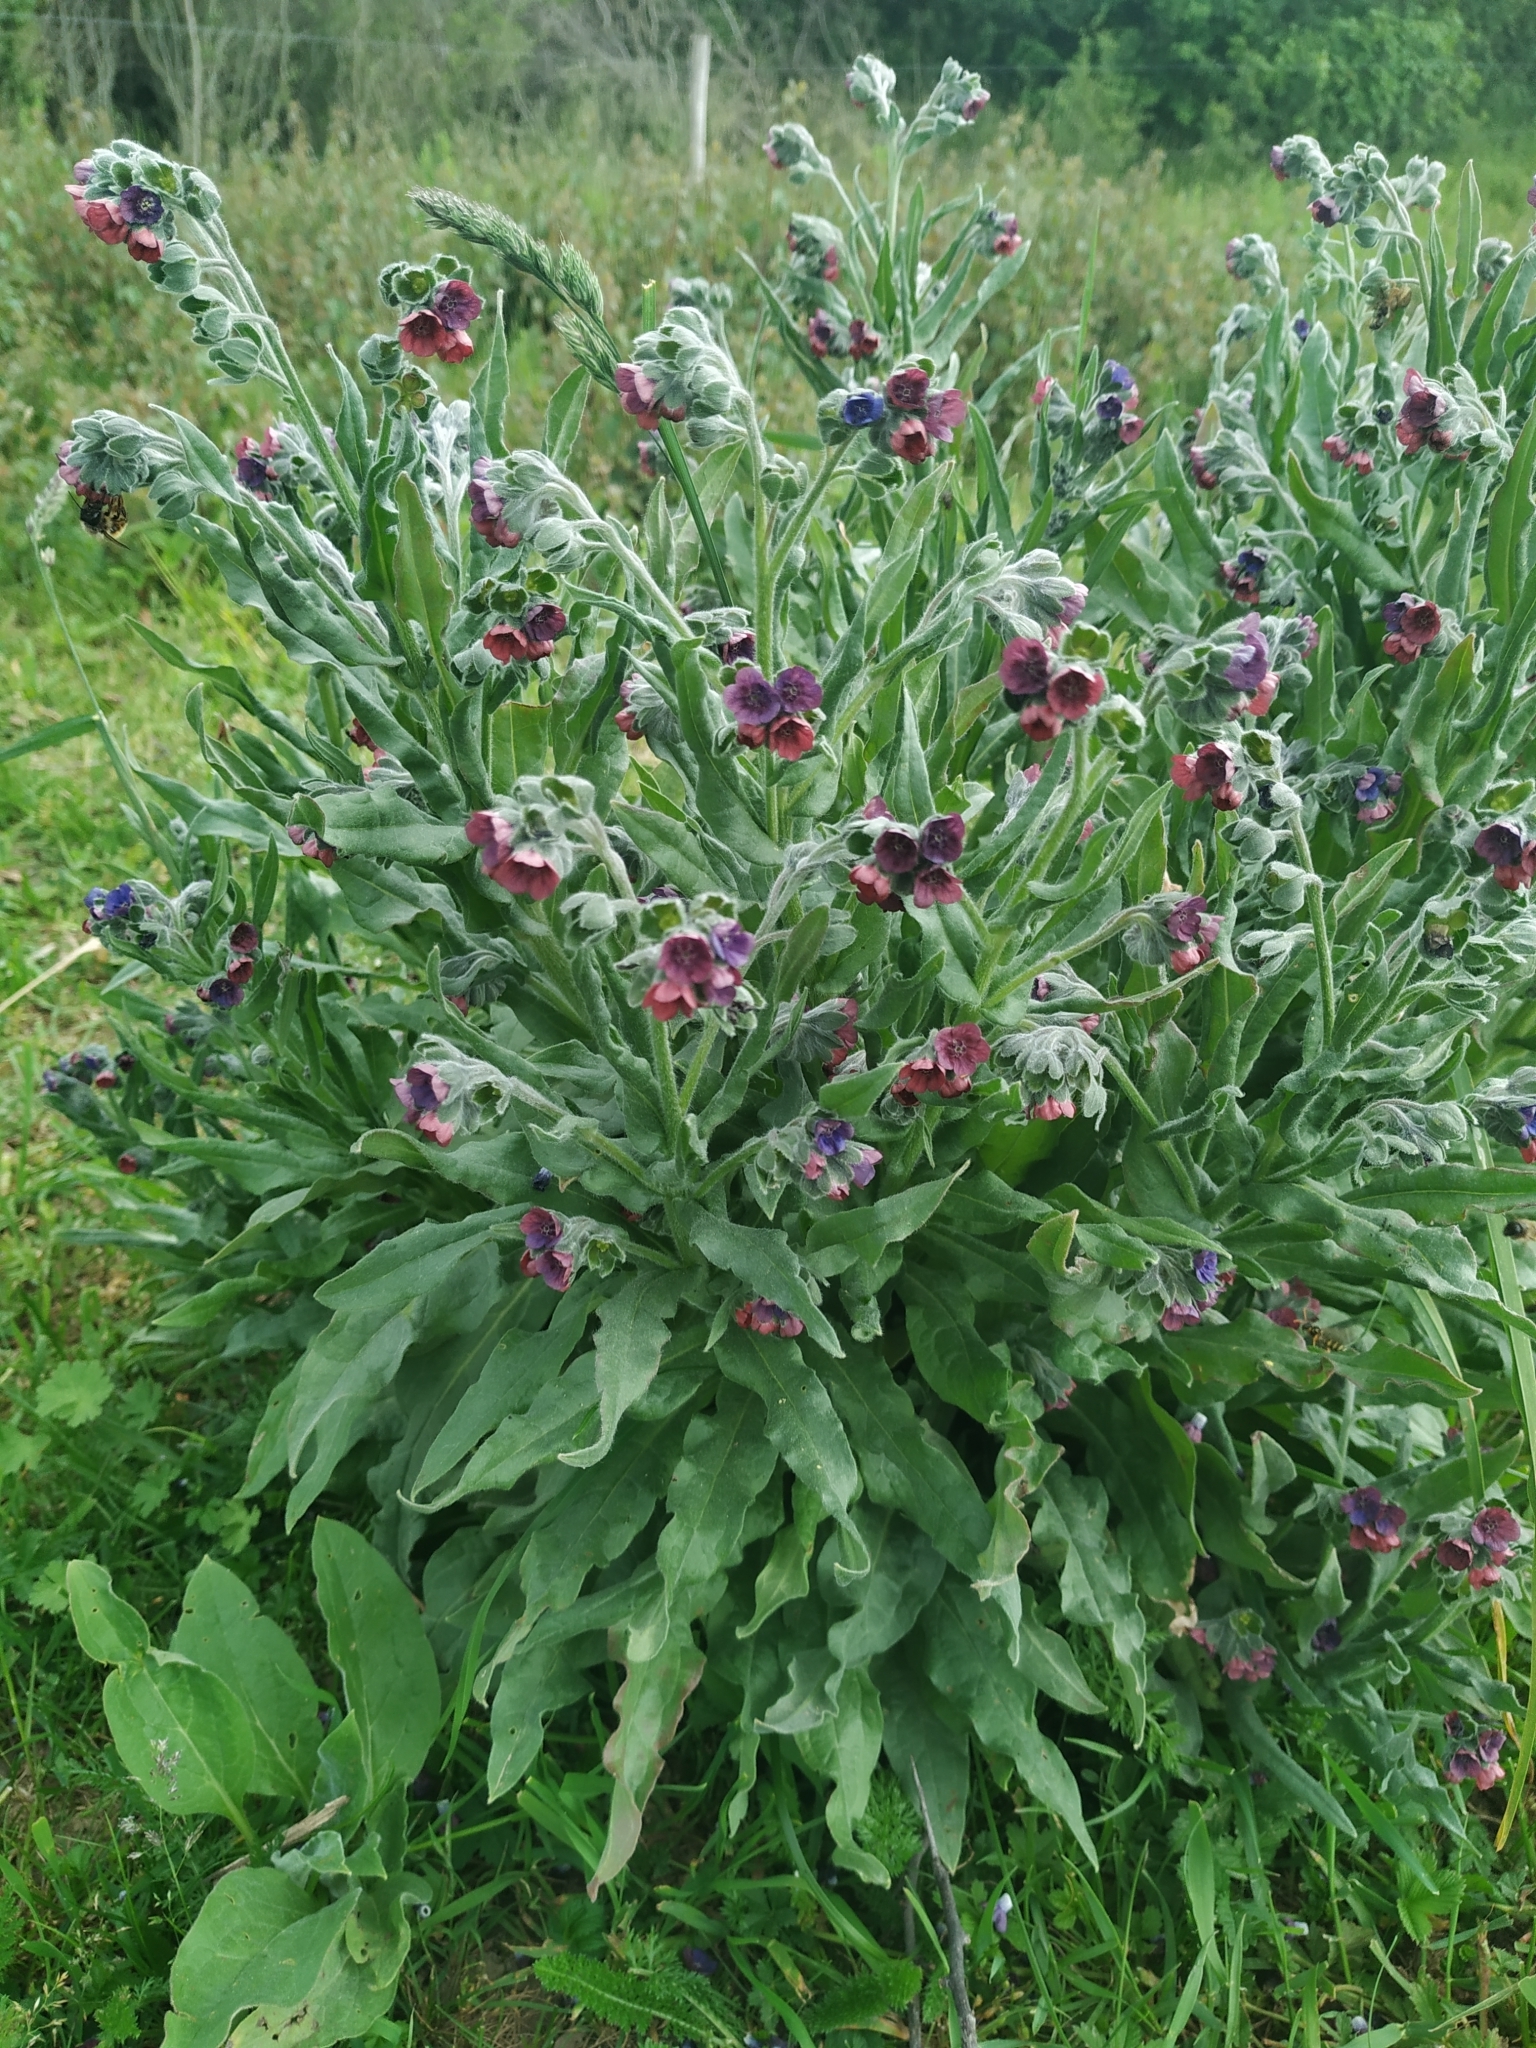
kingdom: Plantae
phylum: Tracheophyta
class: Magnoliopsida
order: Boraginales
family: Boraginaceae
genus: Cynoglossum
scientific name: Cynoglossum officinale
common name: Hound's-tongue
